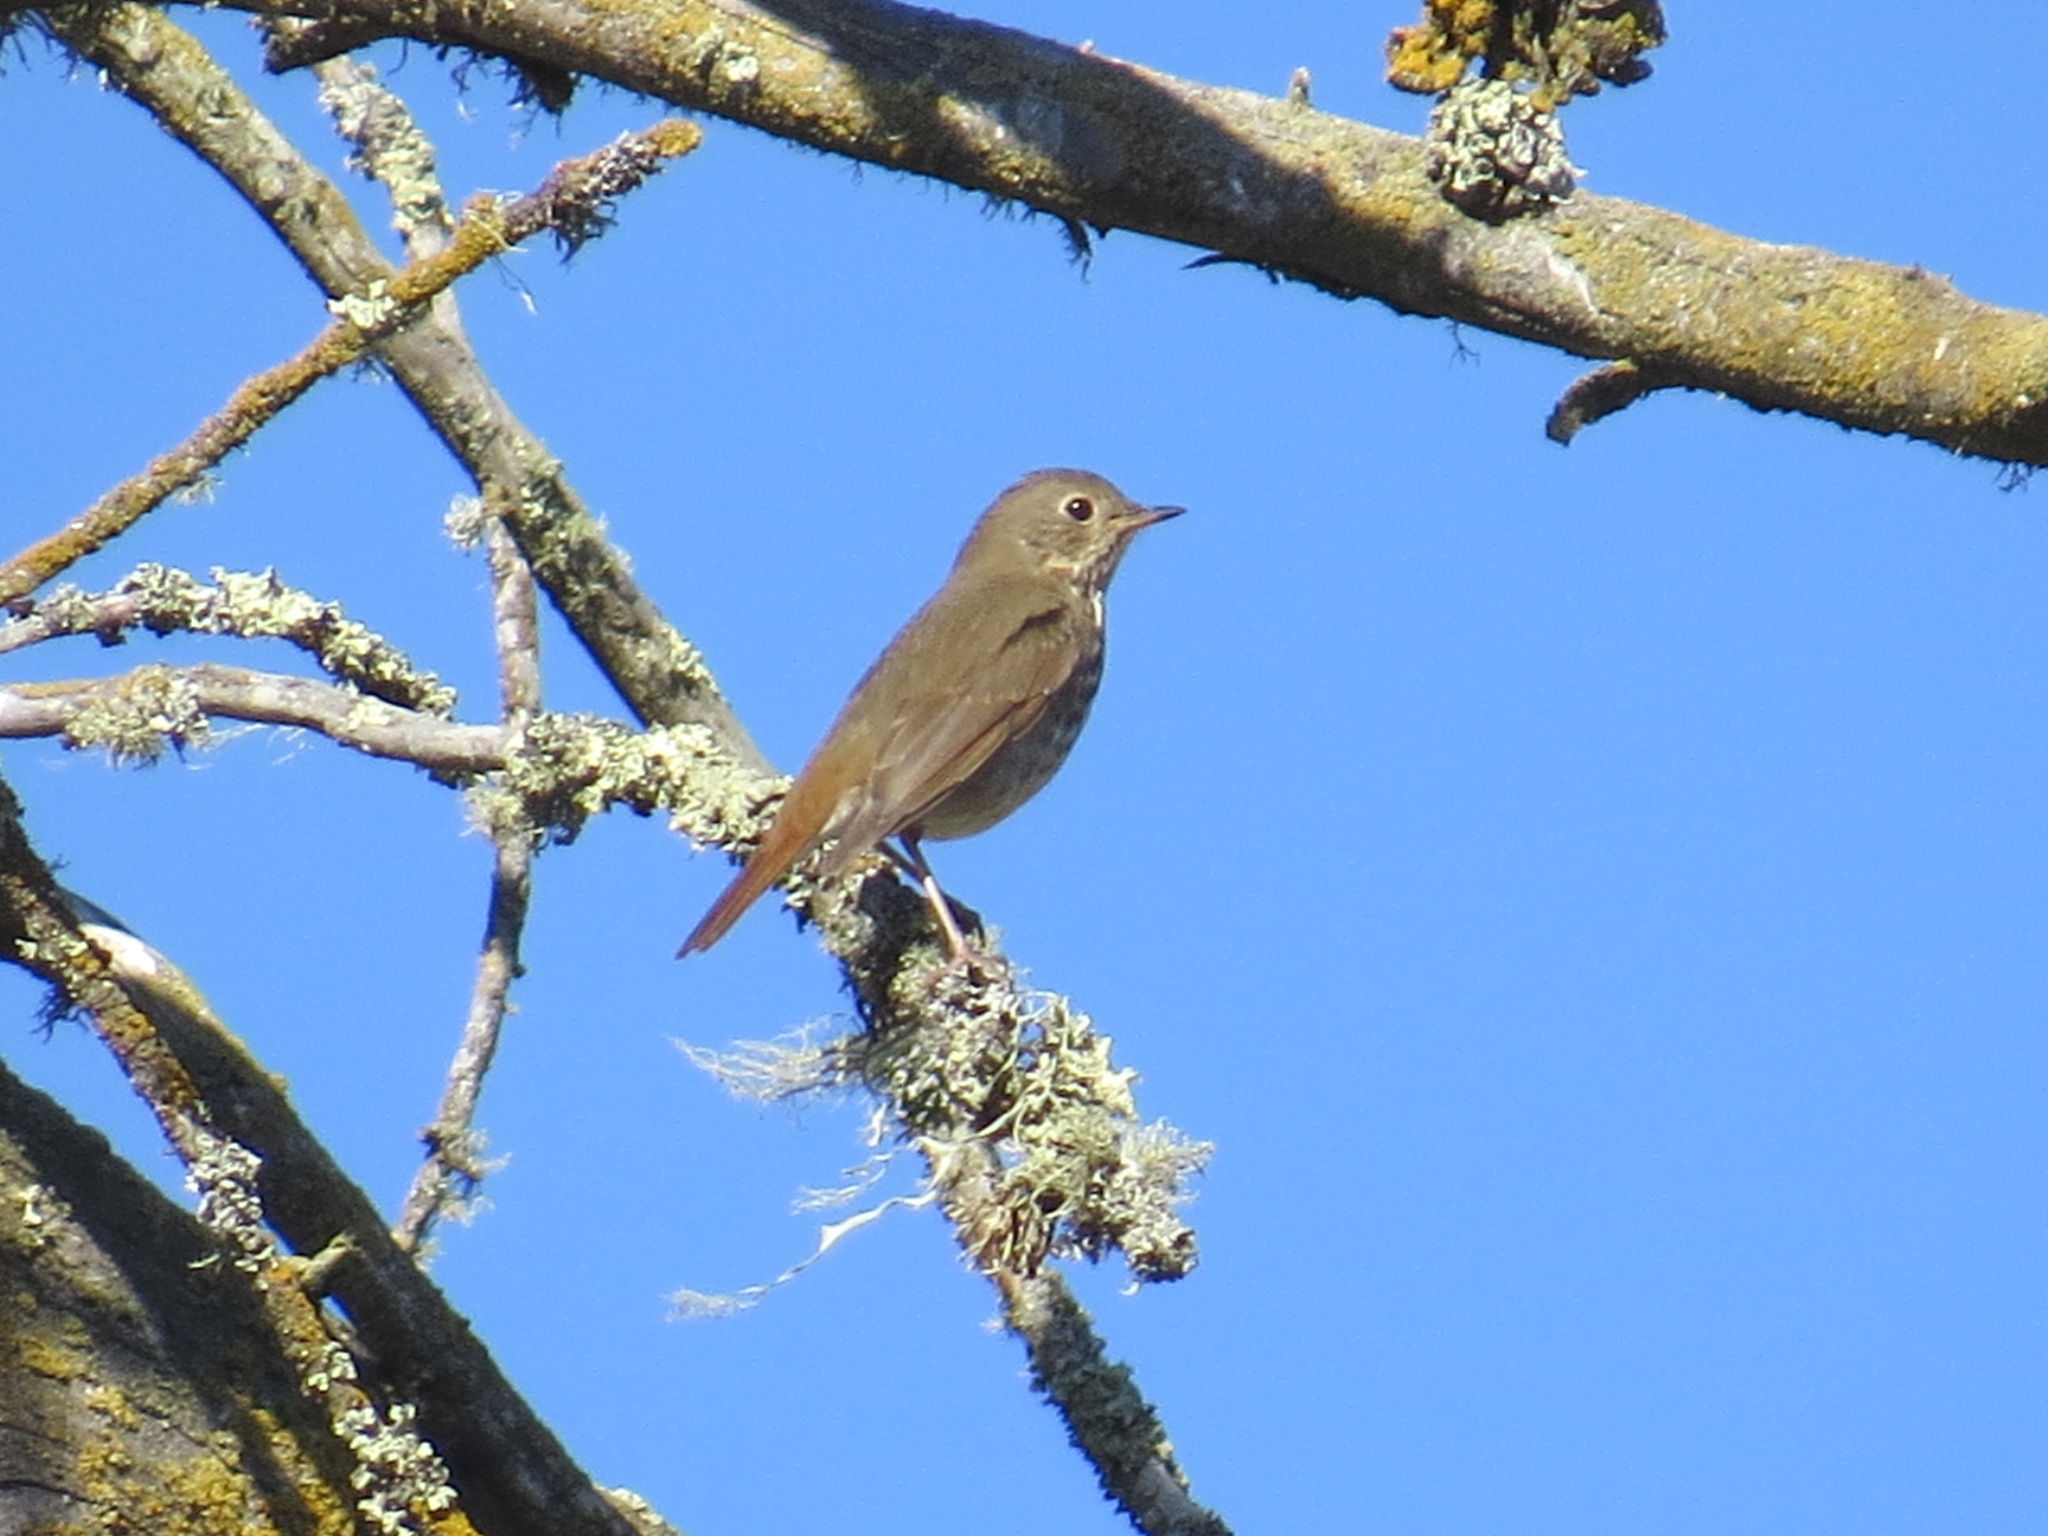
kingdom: Animalia
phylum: Chordata
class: Aves
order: Passeriformes
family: Turdidae
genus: Catharus
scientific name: Catharus guttatus
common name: Hermit thrush
